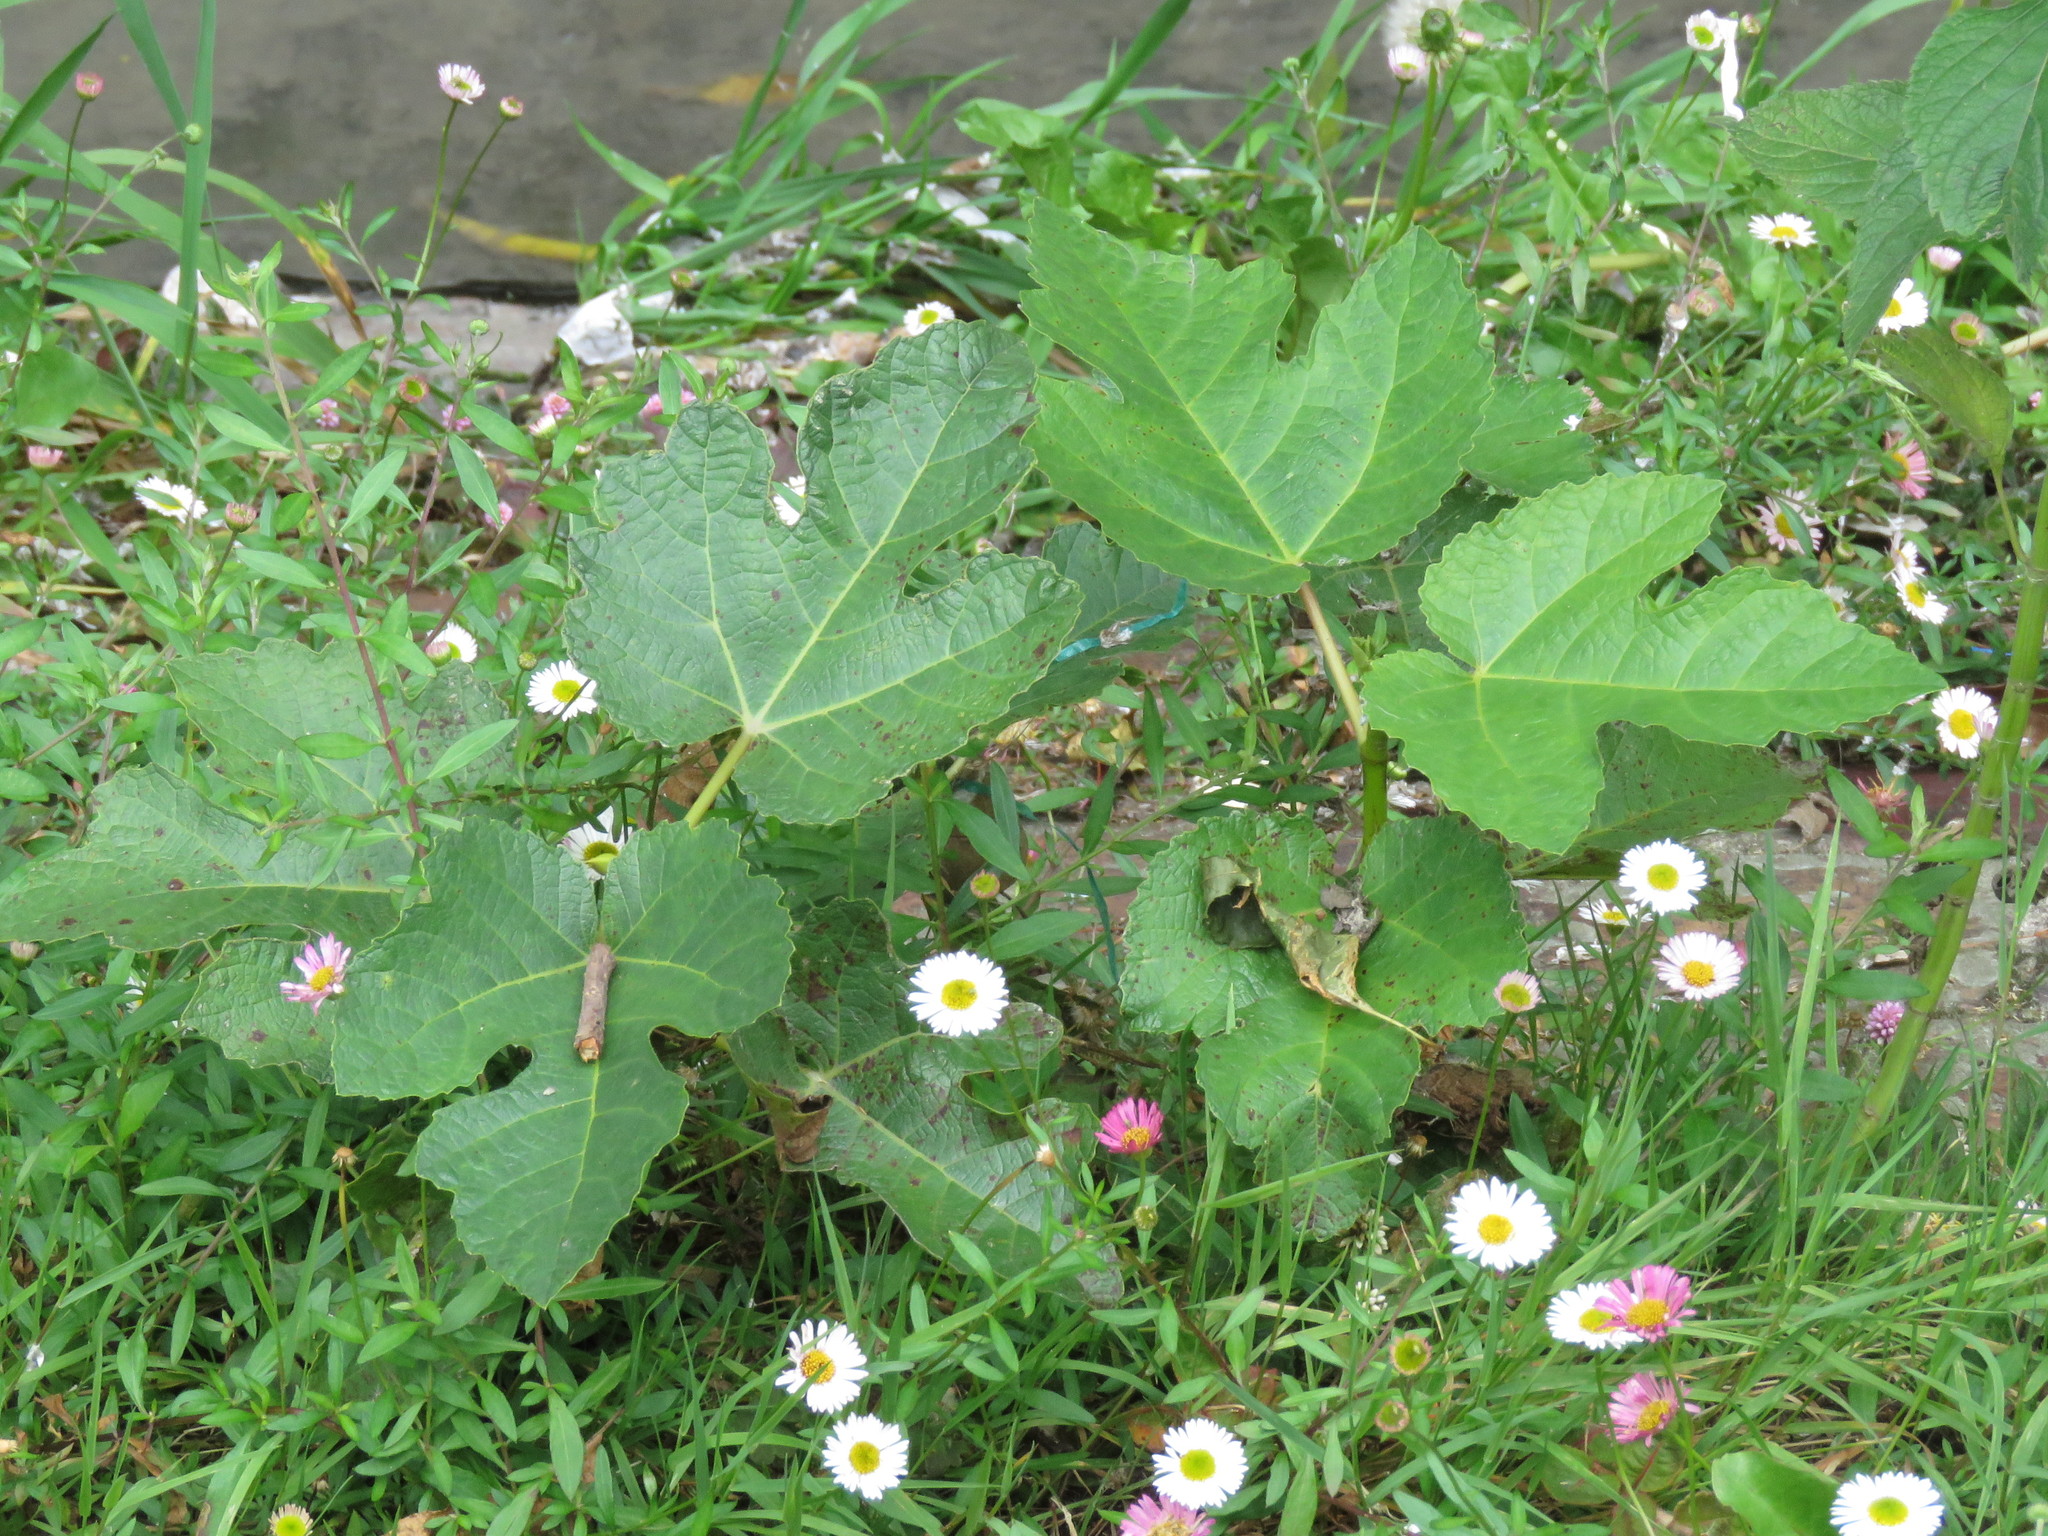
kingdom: Plantae
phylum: Tracheophyta
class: Magnoliopsida
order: Rosales
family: Moraceae
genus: Ficus
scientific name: Ficus carica
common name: Fig
